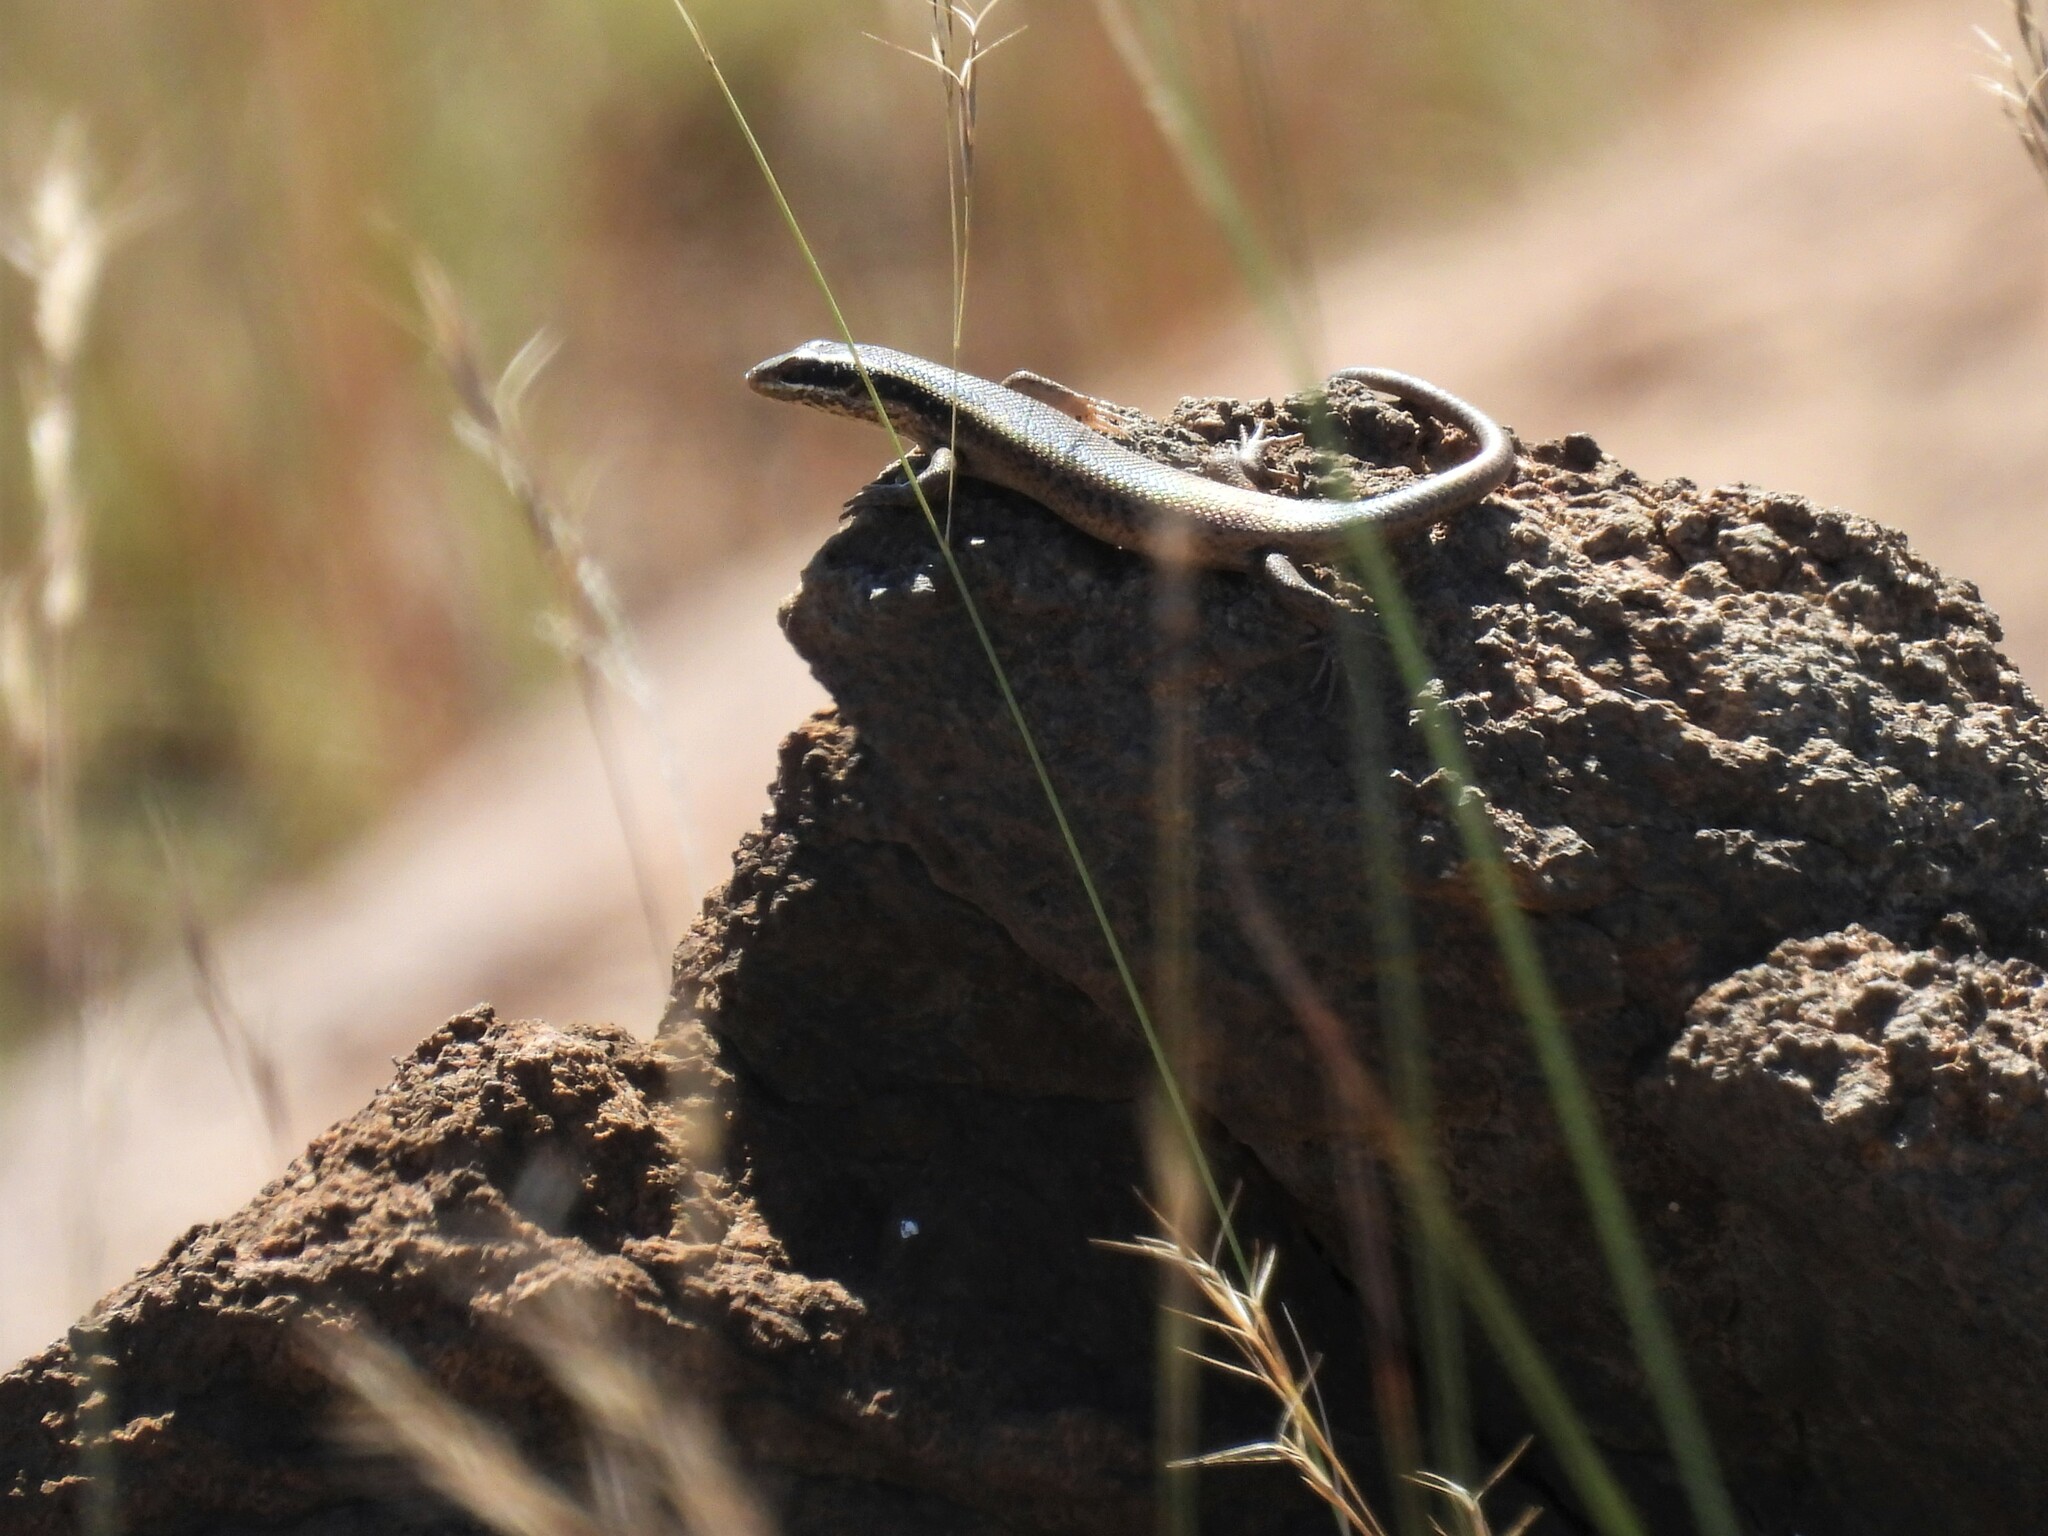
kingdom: Animalia
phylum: Chordata
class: Squamata
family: Scincidae
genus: Trachylepis
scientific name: Trachylepis punctatissima
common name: Montane speckled skink
